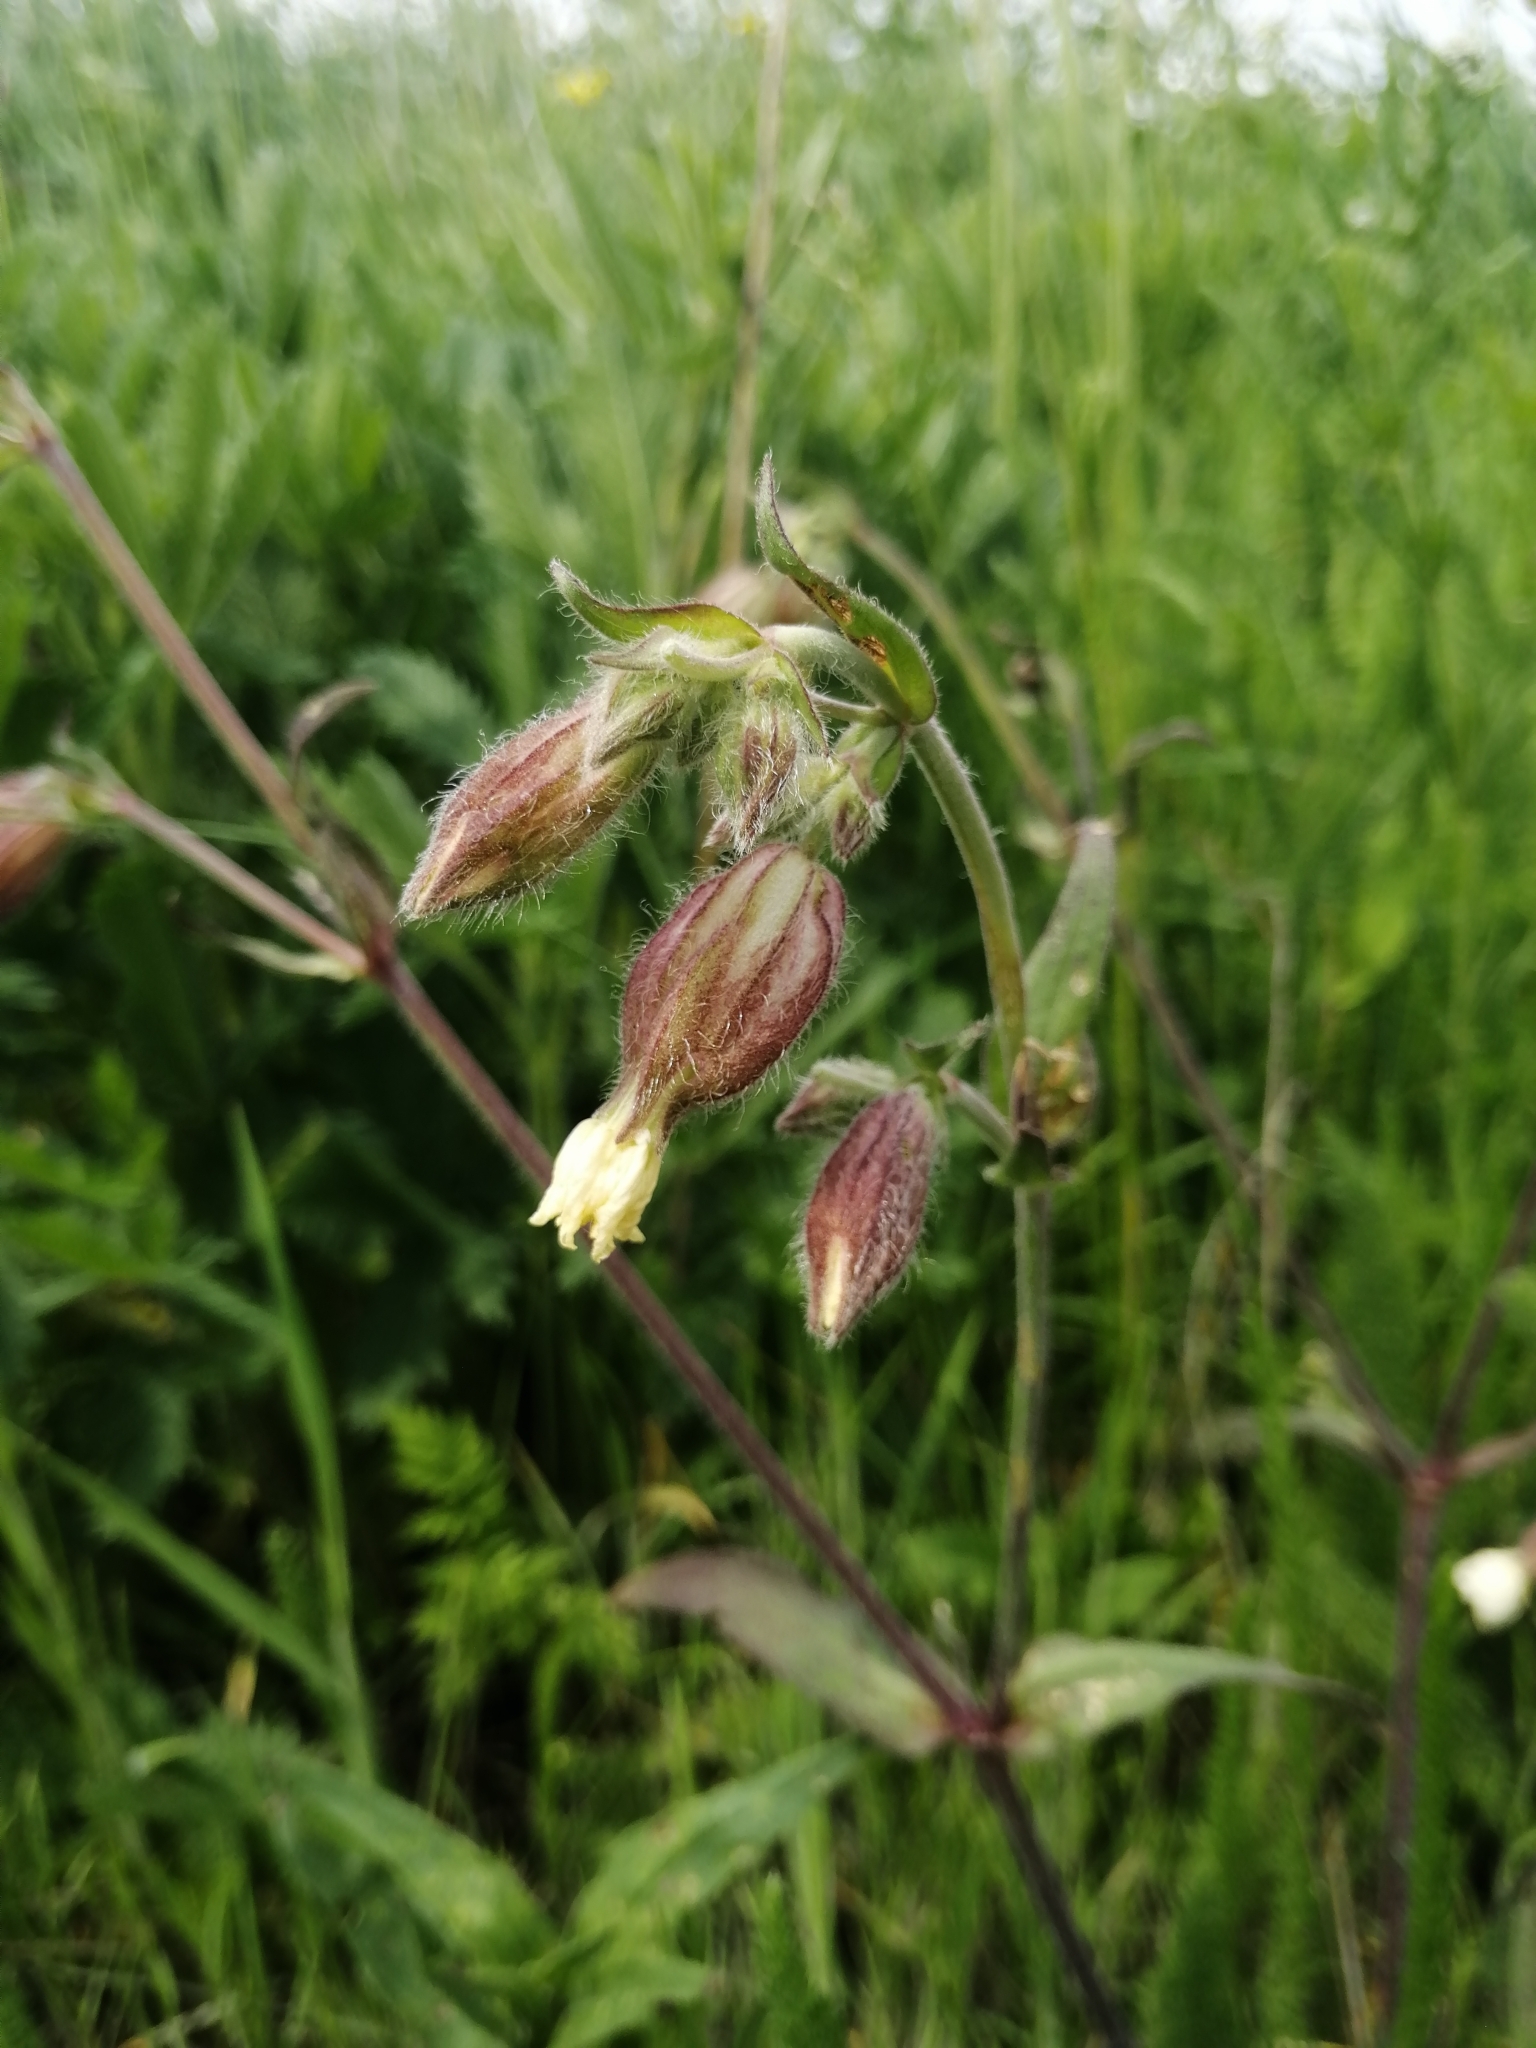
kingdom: Plantae
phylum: Tracheophyta
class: Magnoliopsida
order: Caryophyllales
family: Caryophyllaceae
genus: Silene
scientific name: Silene latifolia
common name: White campion
